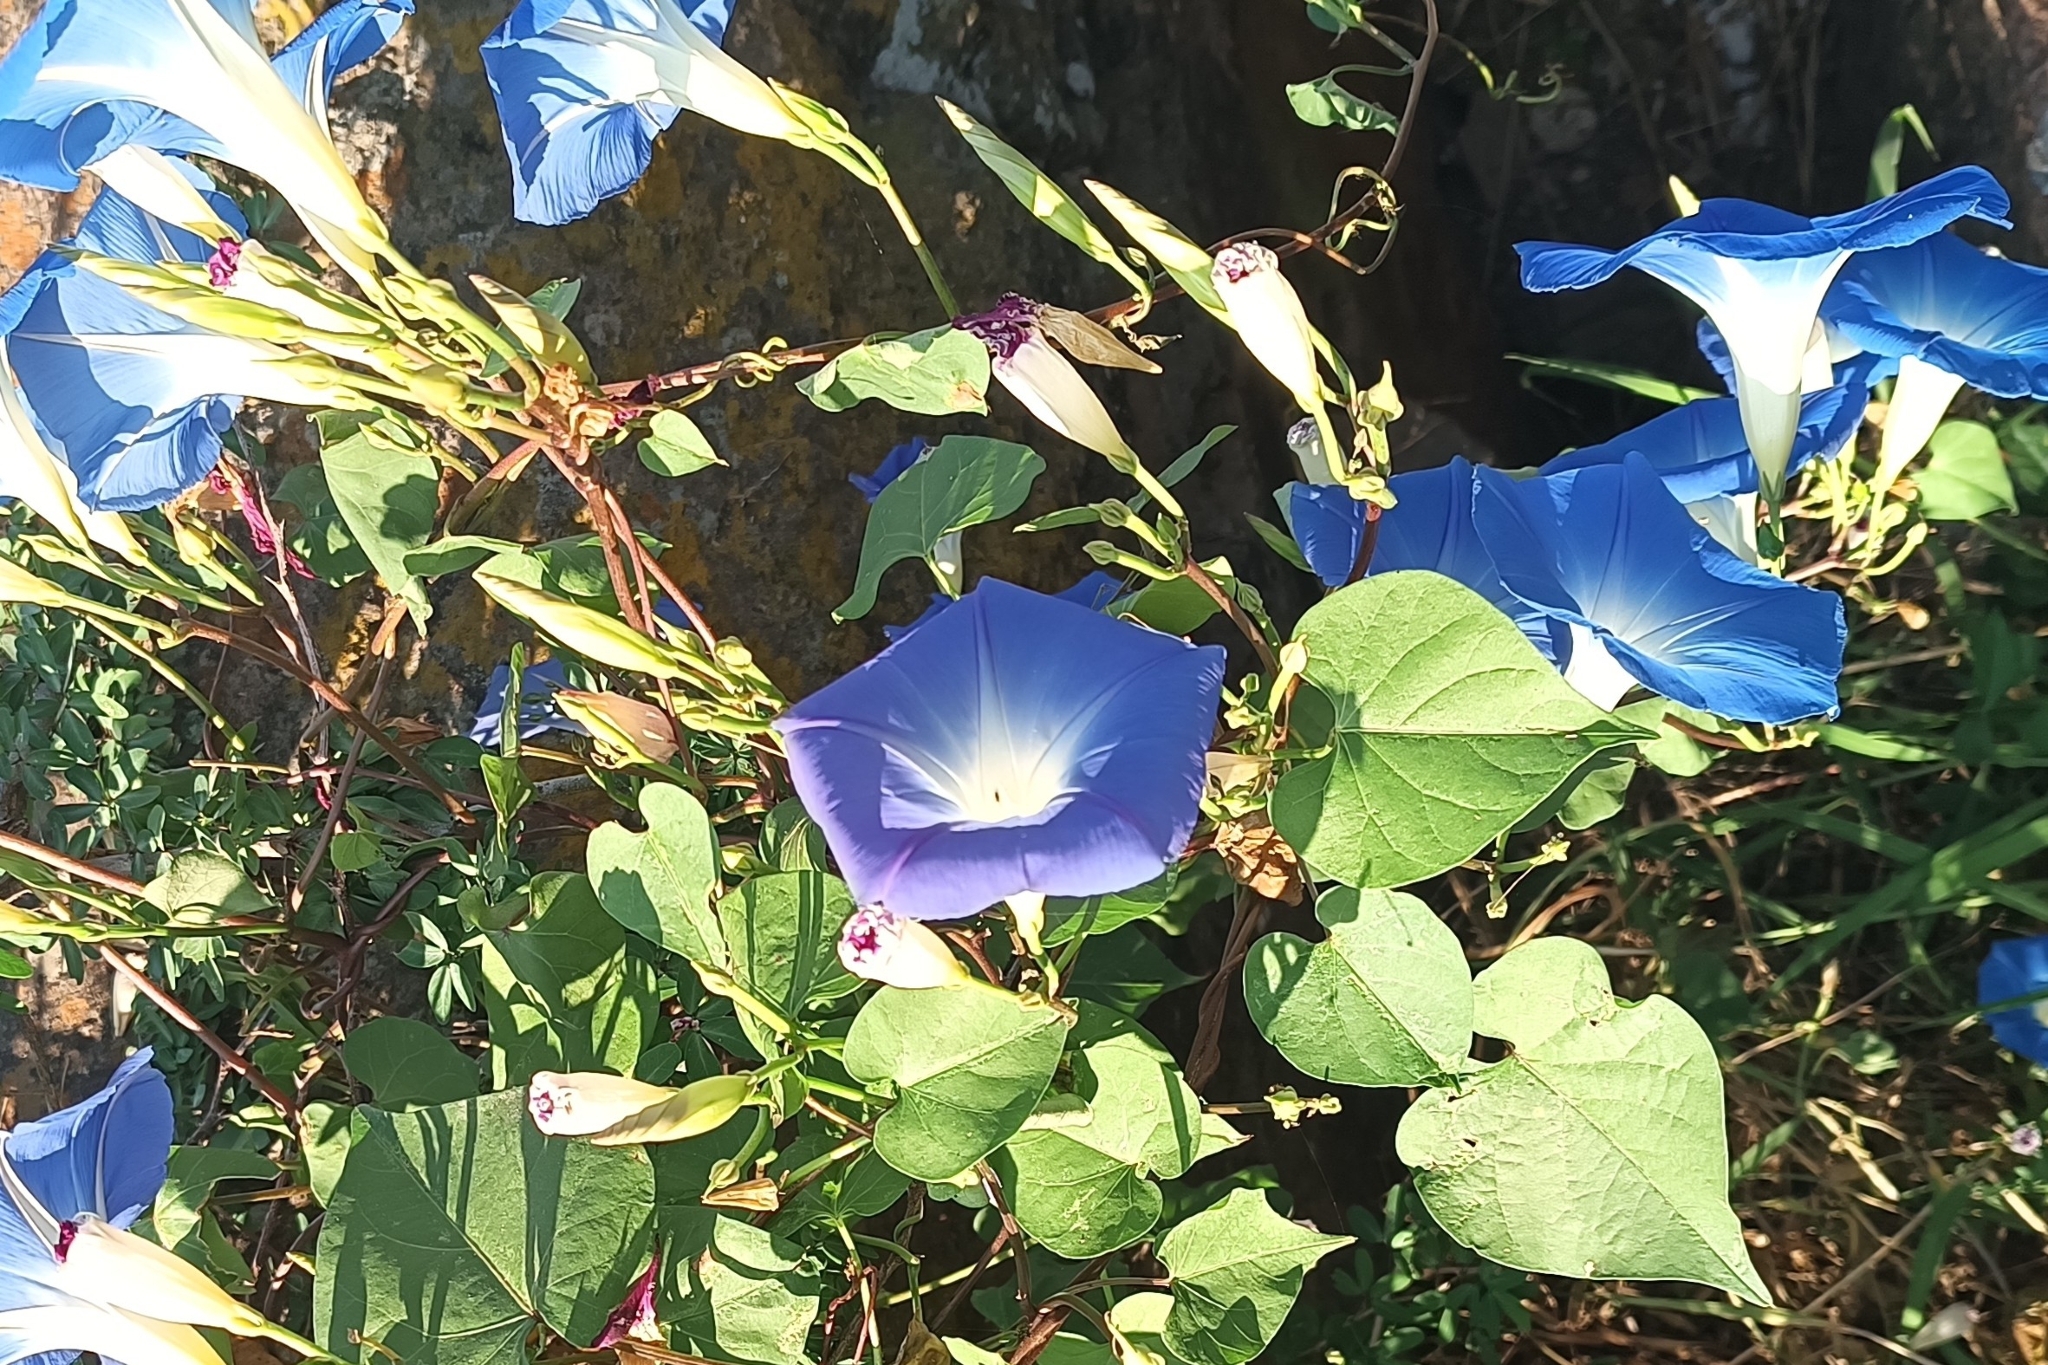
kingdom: Plantae
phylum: Tracheophyta
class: Magnoliopsida
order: Solanales
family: Convolvulaceae
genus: Ipomoea
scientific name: Ipomoea tricolor
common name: Morning-glory
